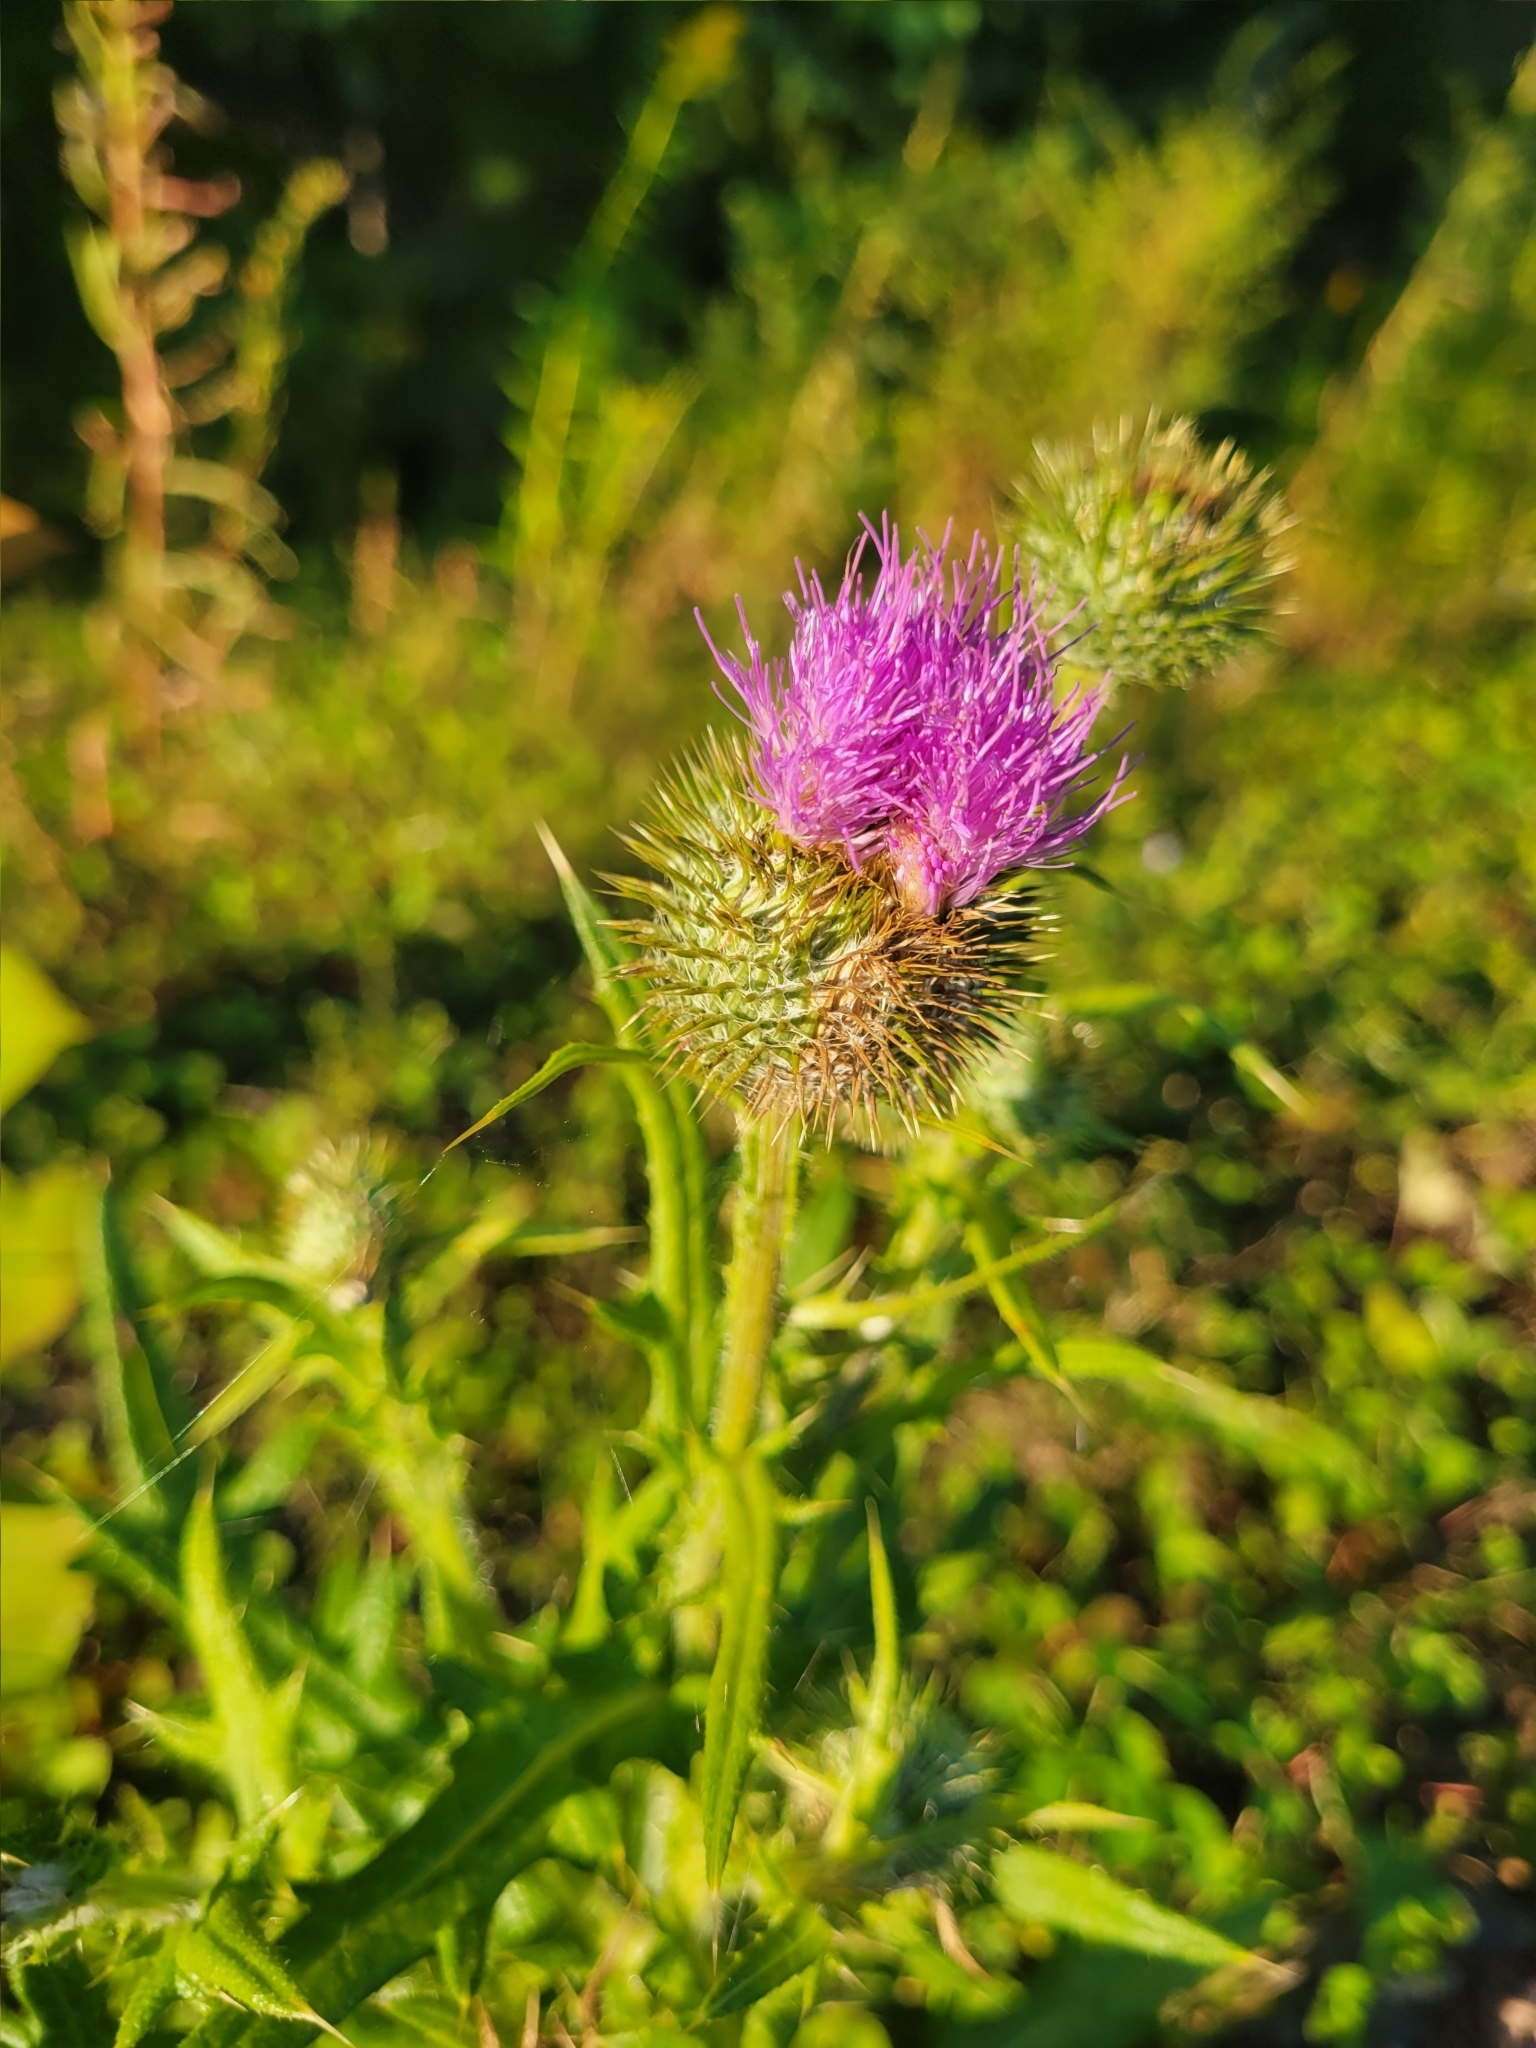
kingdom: Plantae
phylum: Tracheophyta
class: Magnoliopsida
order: Asterales
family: Asteraceae
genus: Cirsium
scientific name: Cirsium vulgare
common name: Bull thistle
